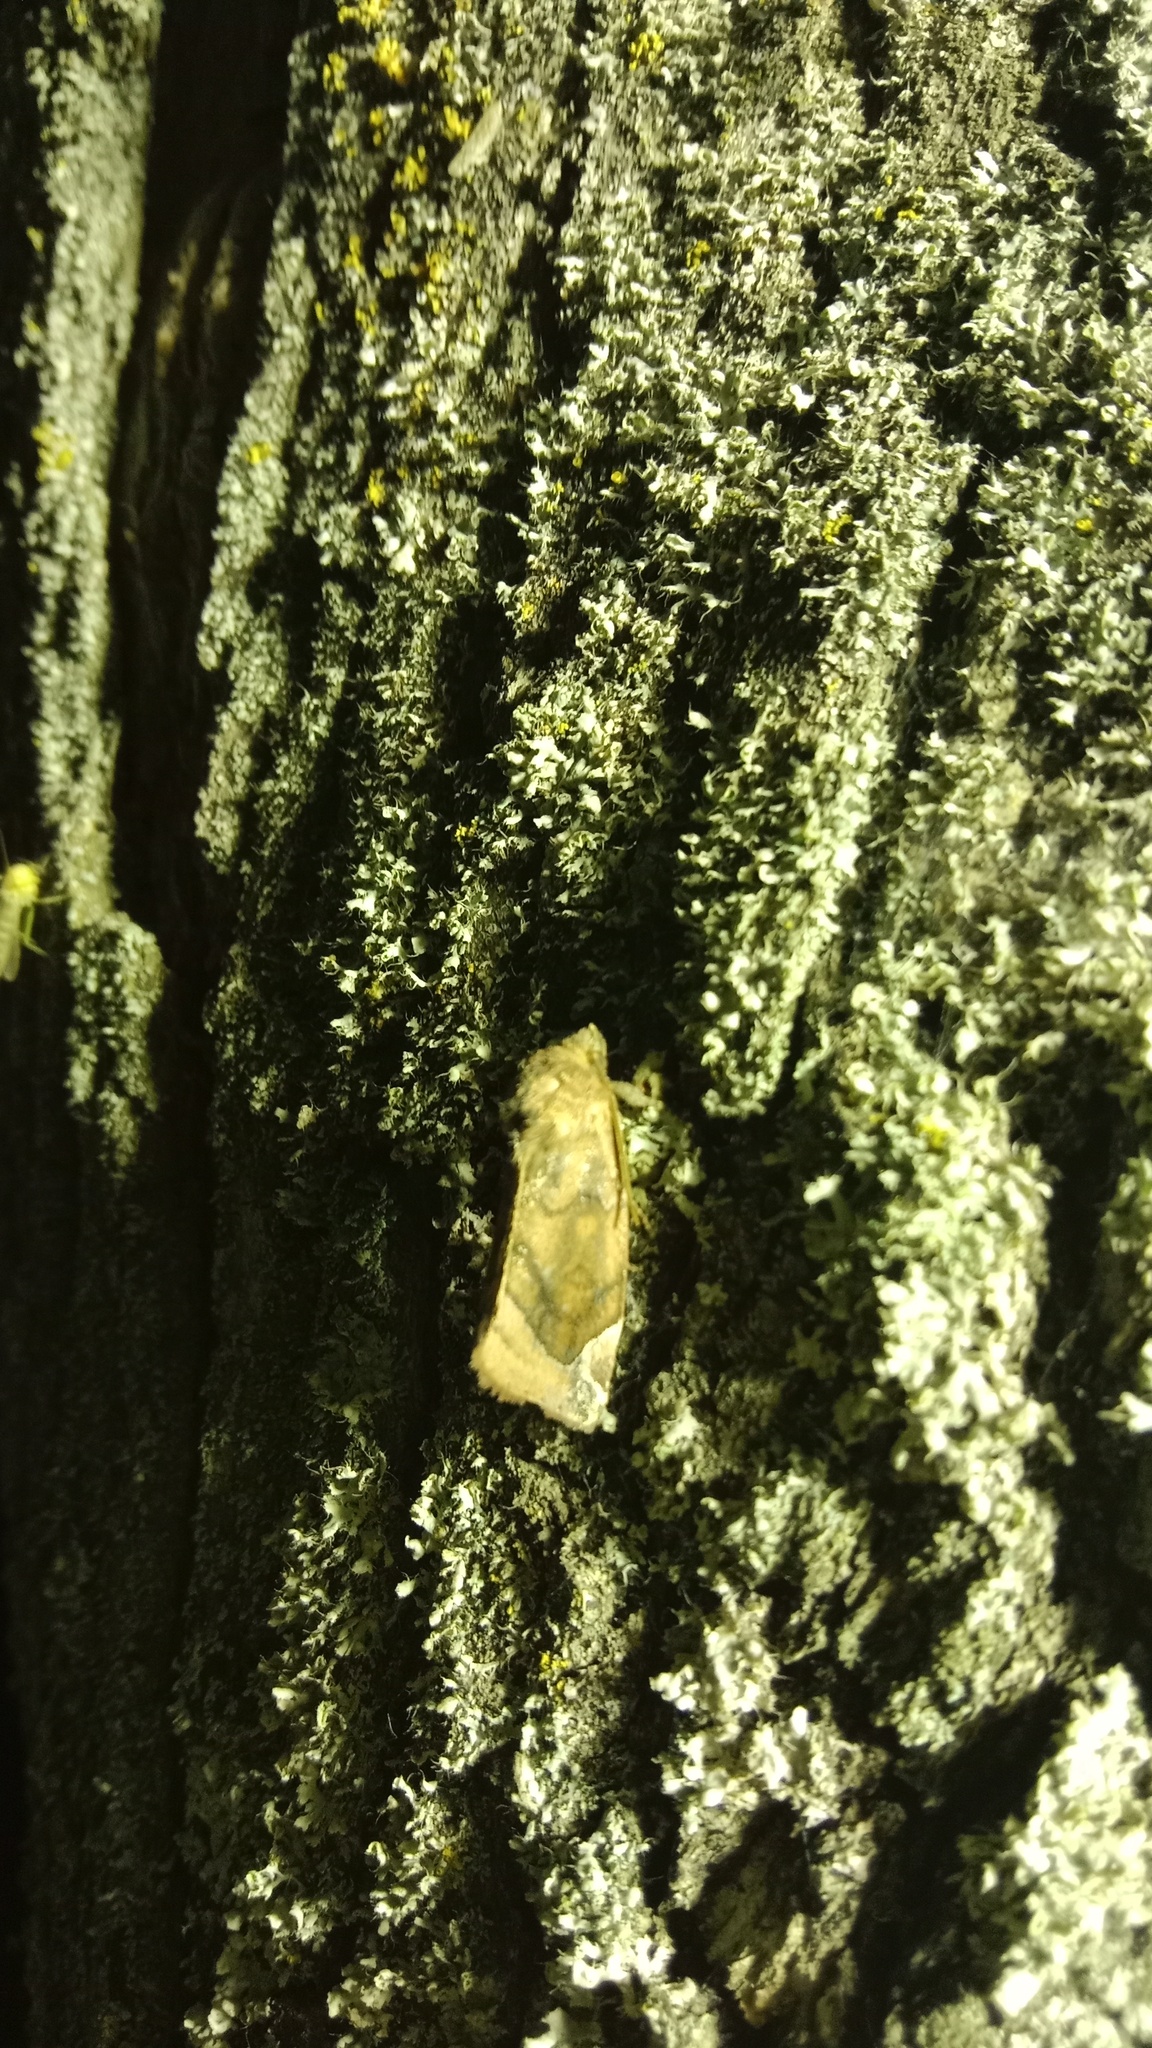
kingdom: Animalia
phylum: Arthropoda
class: Insecta
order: Lepidoptera
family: Noctuidae
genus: Cosmia
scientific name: Cosmia pyralina
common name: Lunar-spotted pinion
